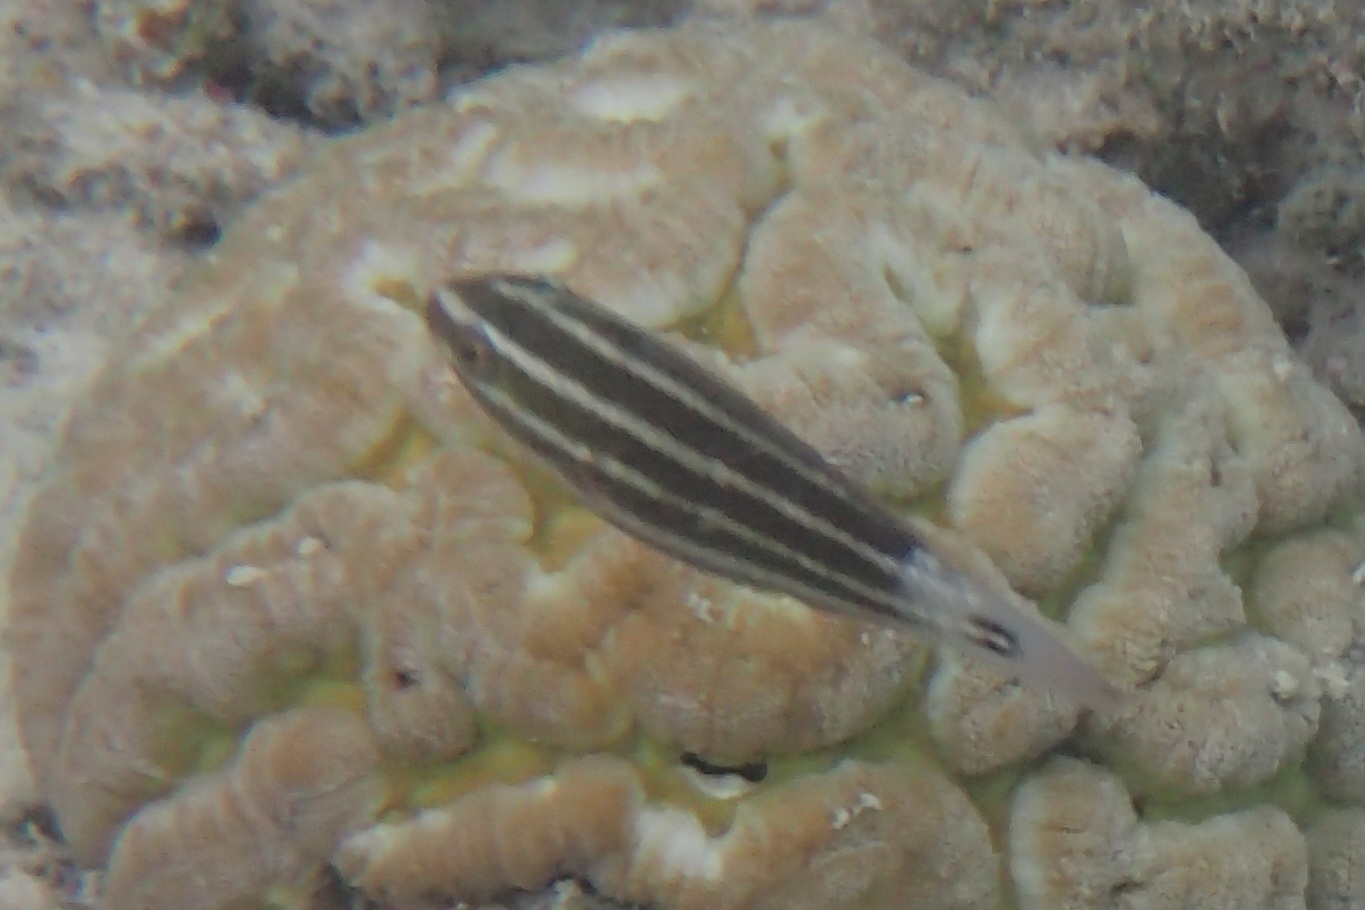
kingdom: Animalia
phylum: Chordata
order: Perciformes
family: Scaridae
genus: Chlorurus
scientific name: Chlorurus spilurus
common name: Bullethead parrotfish
